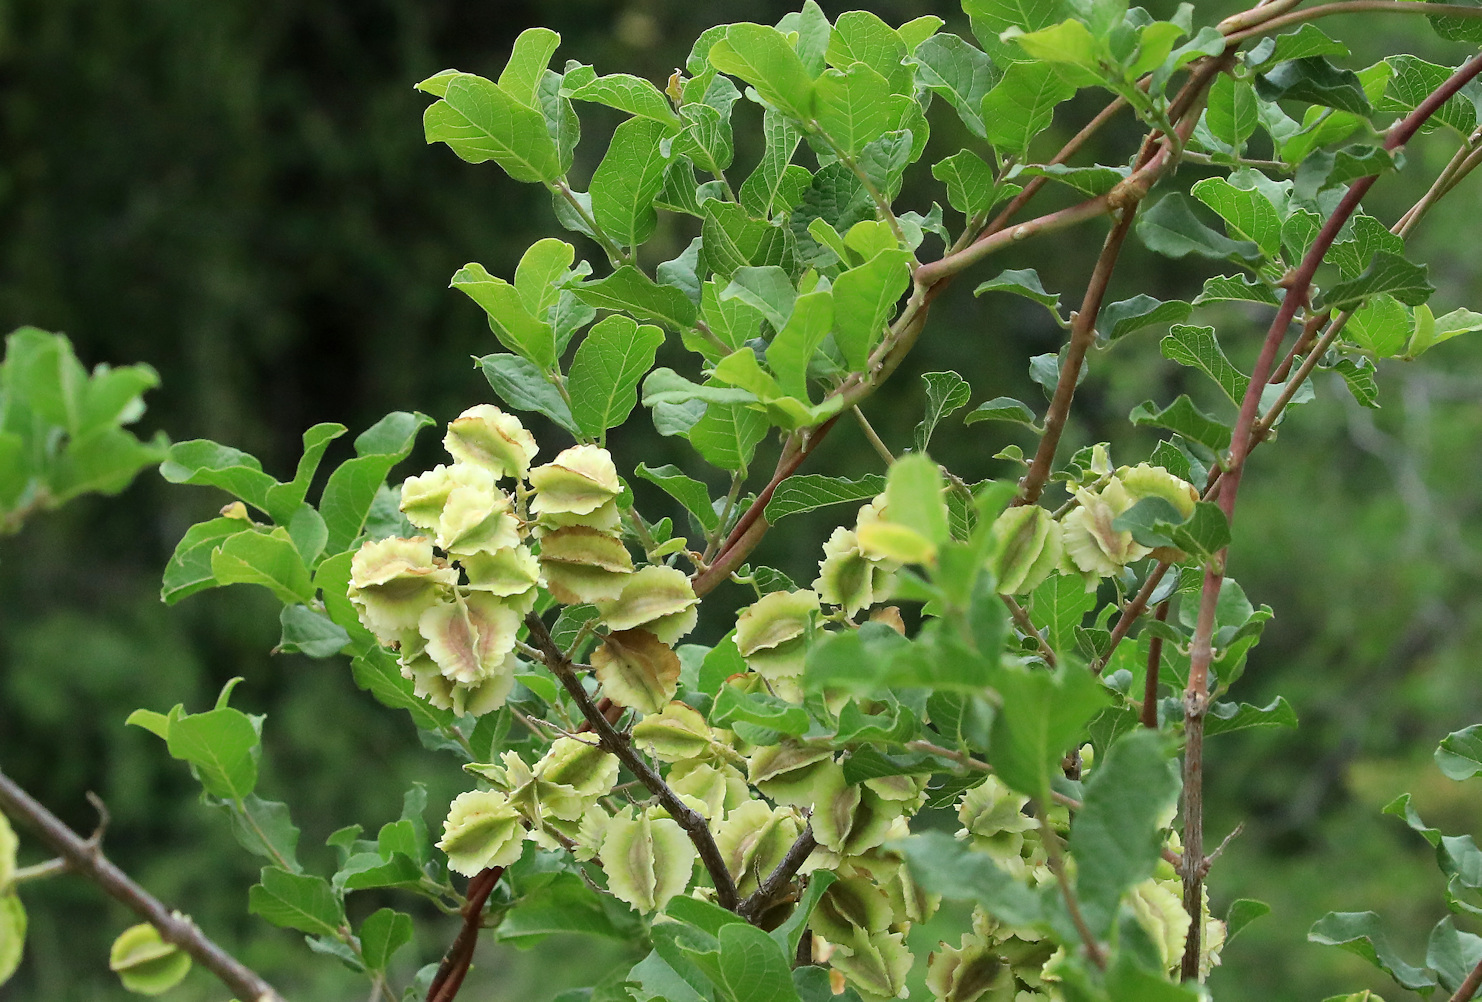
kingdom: Plantae
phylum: Tracheophyta
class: Magnoliopsida
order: Myrtales
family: Combretaceae
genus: Combretum
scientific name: Combretum mossambicense
